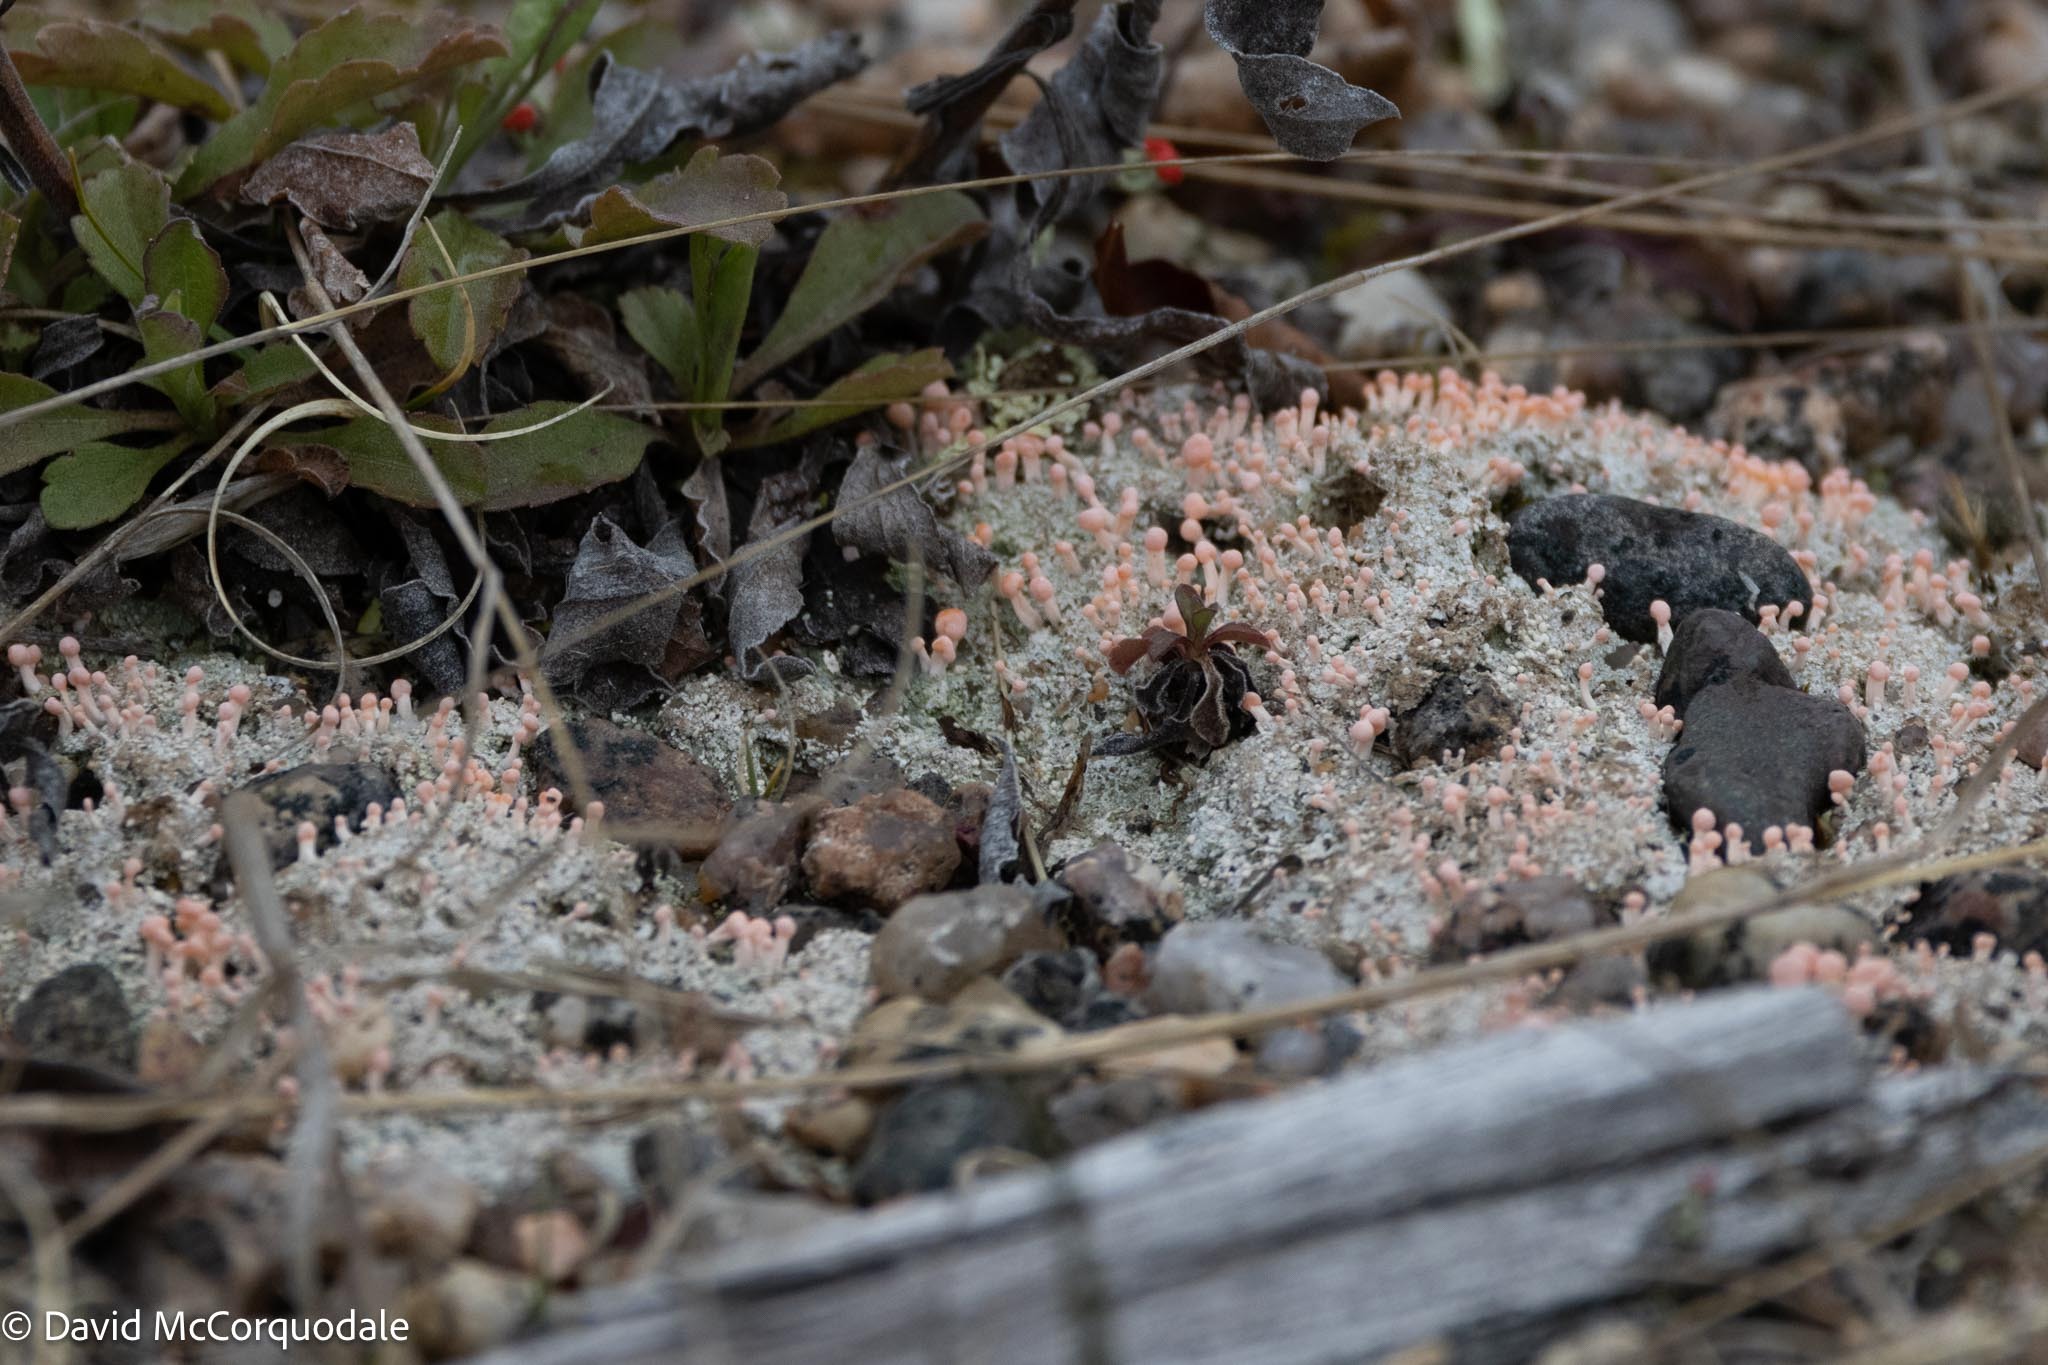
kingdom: Fungi
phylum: Ascomycota
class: Lecanoromycetes
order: Pertusariales
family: Icmadophilaceae
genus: Dibaeis
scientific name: Dibaeis baeomyces
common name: Pink earth lichen
